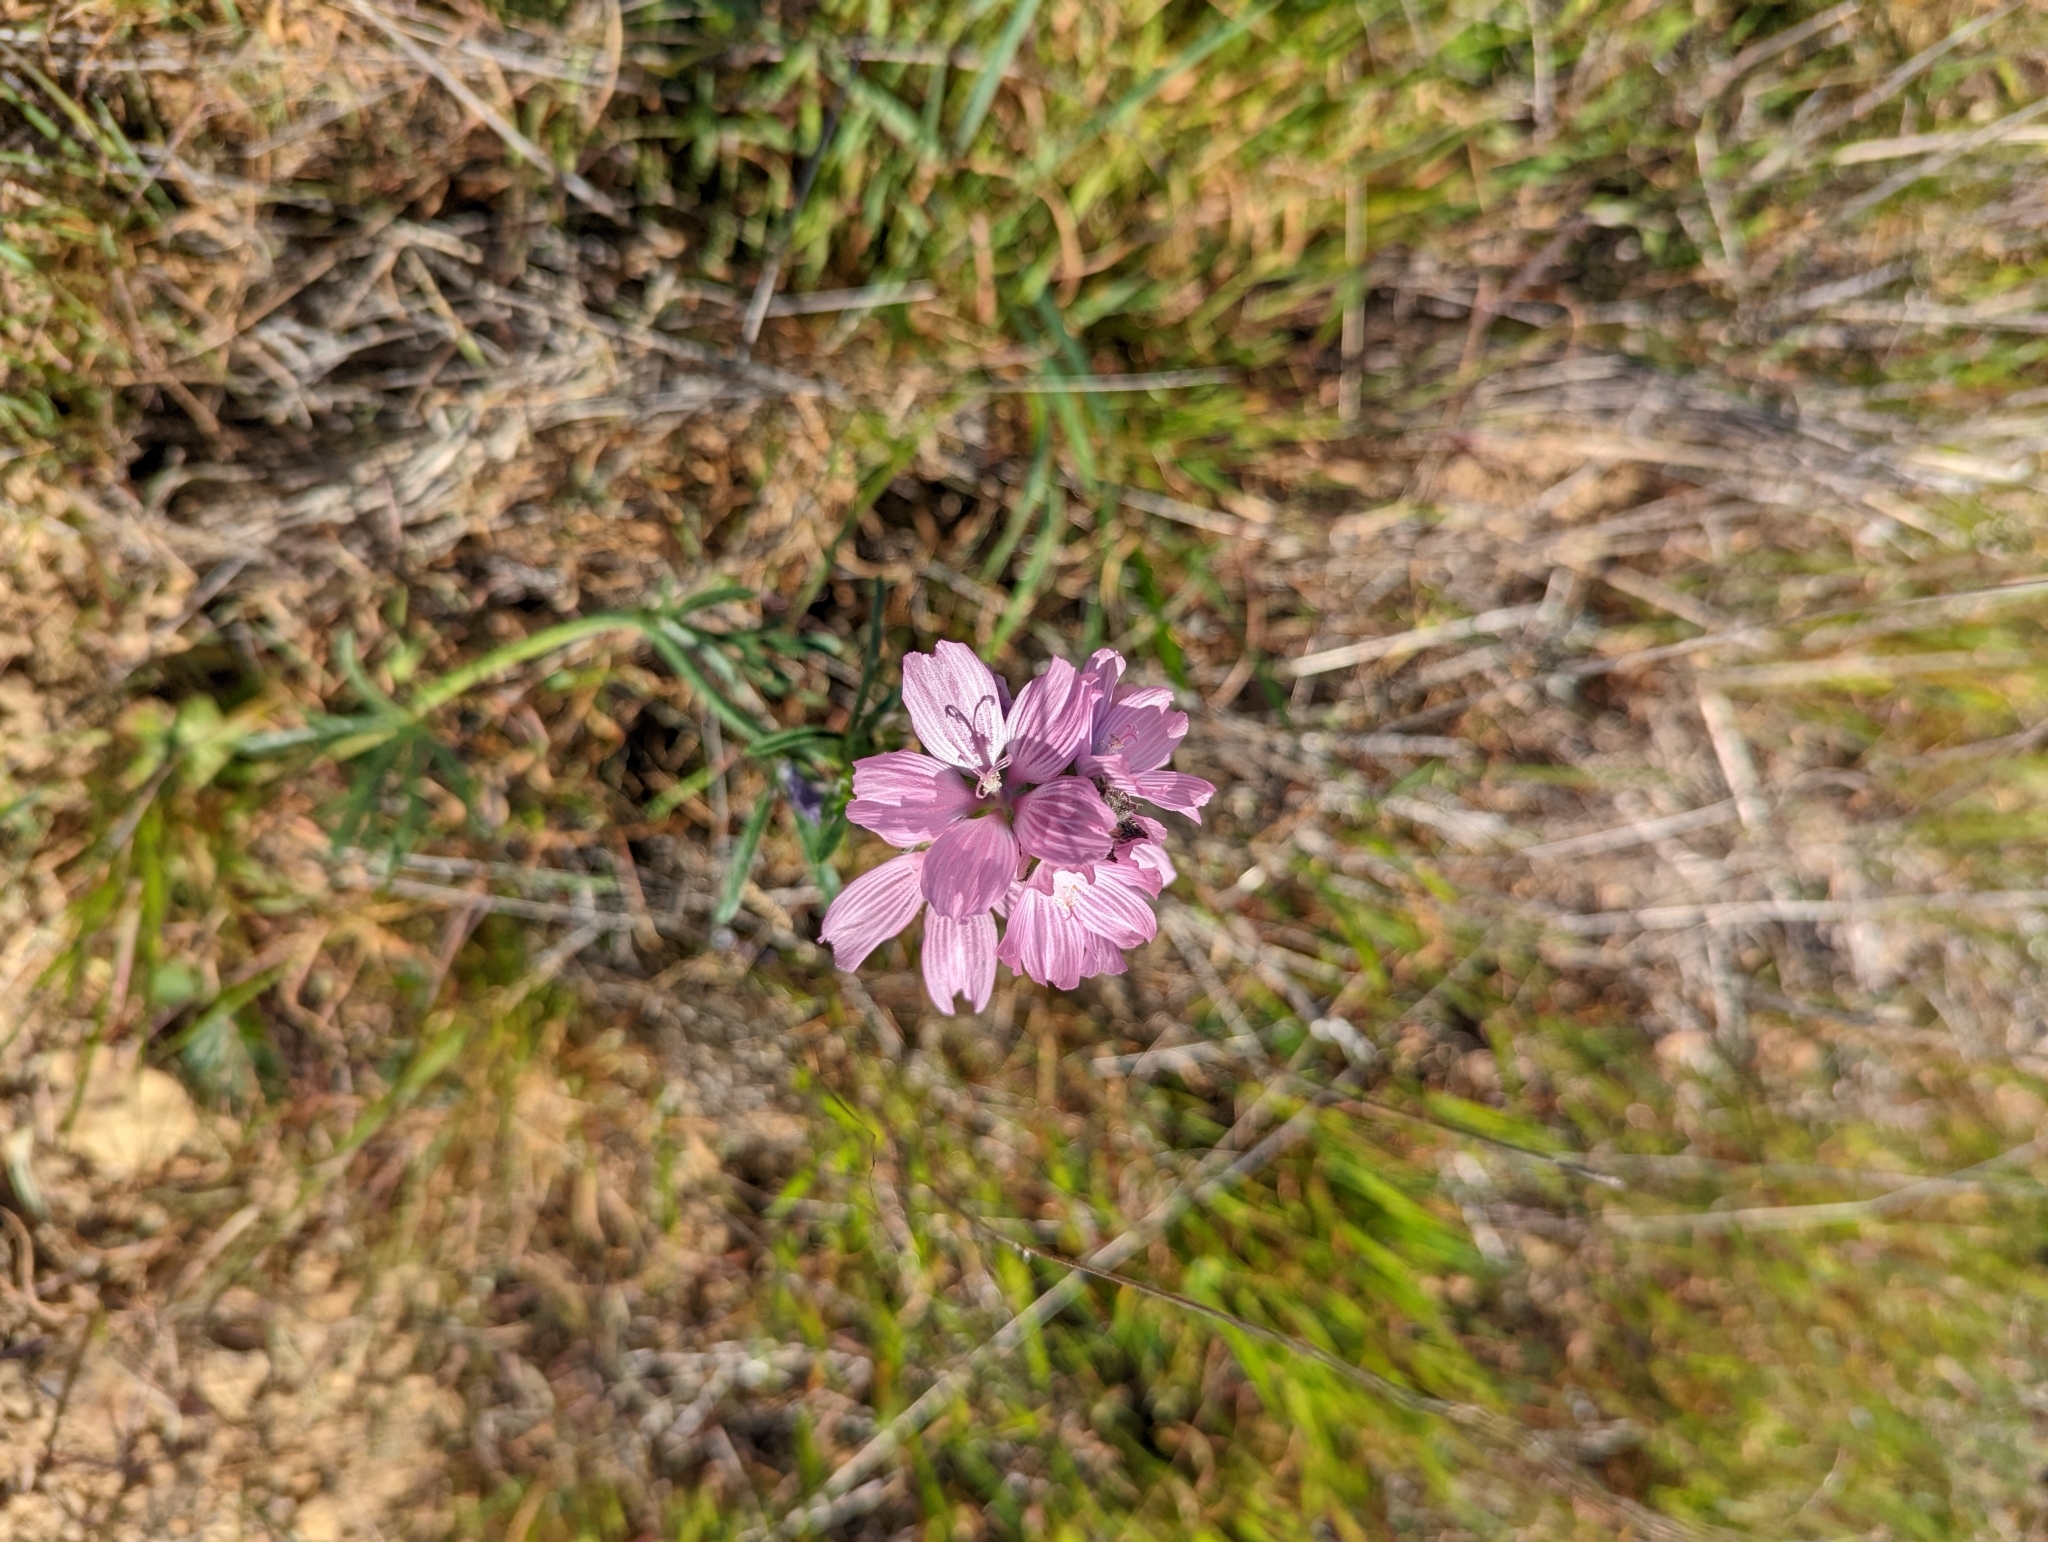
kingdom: Plantae
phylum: Tracheophyta
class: Magnoliopsida
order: Malvales
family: Malvaceae
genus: Sidalcea
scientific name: Sidalcea malviflora
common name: Greek mallow
